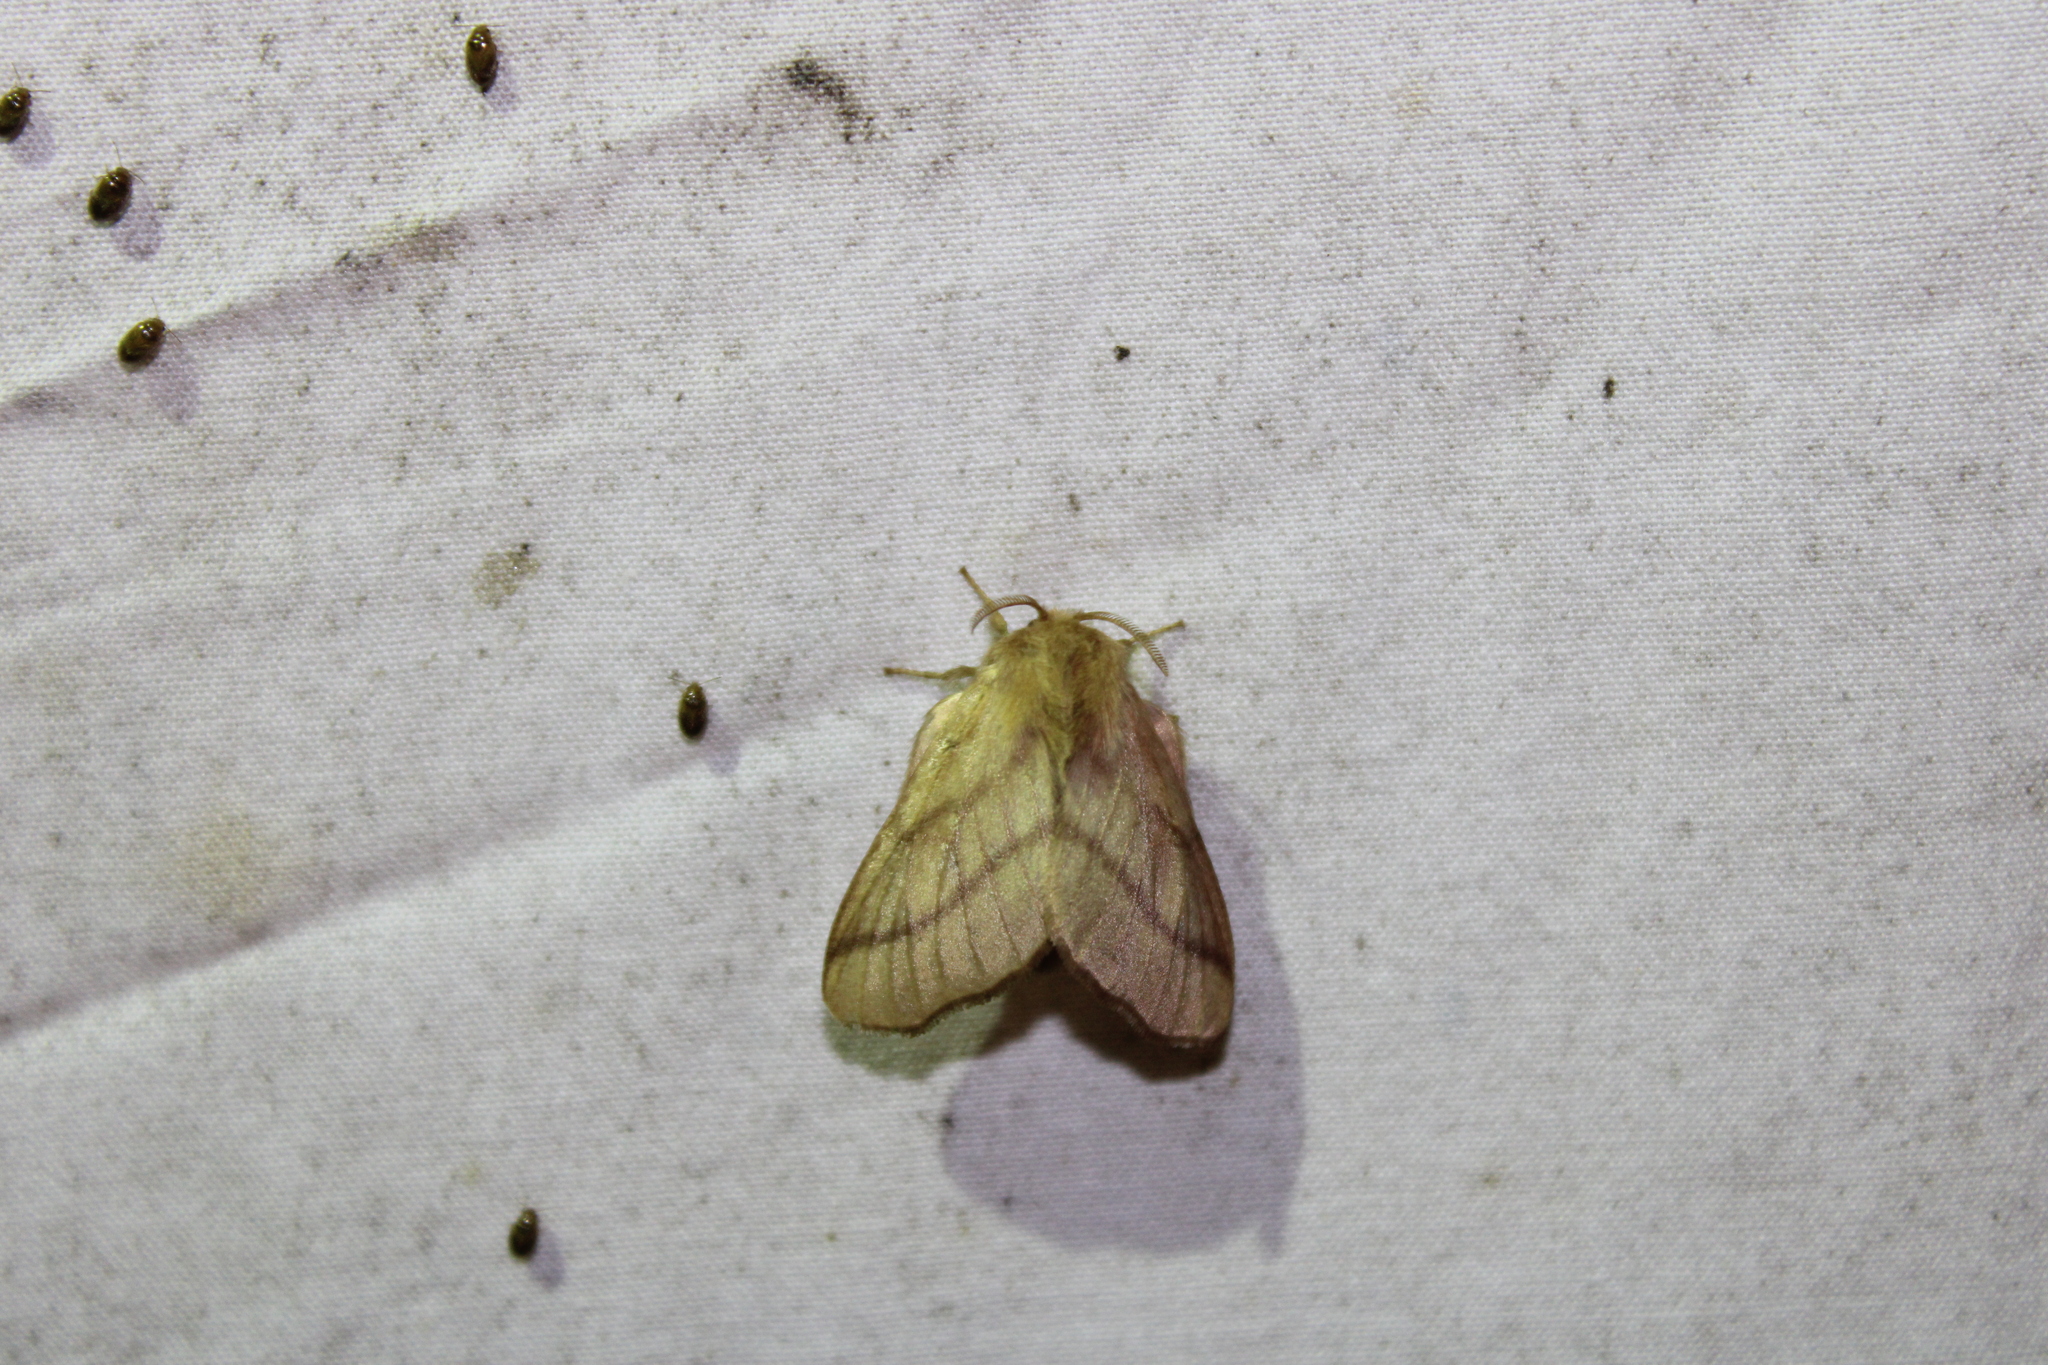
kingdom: Animalia
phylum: Arthropoda
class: Insecta
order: Lepidoptera
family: Lasiocampidae
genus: Malacosoma
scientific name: Malacosoma disstria
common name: Forest tent caterpillar
